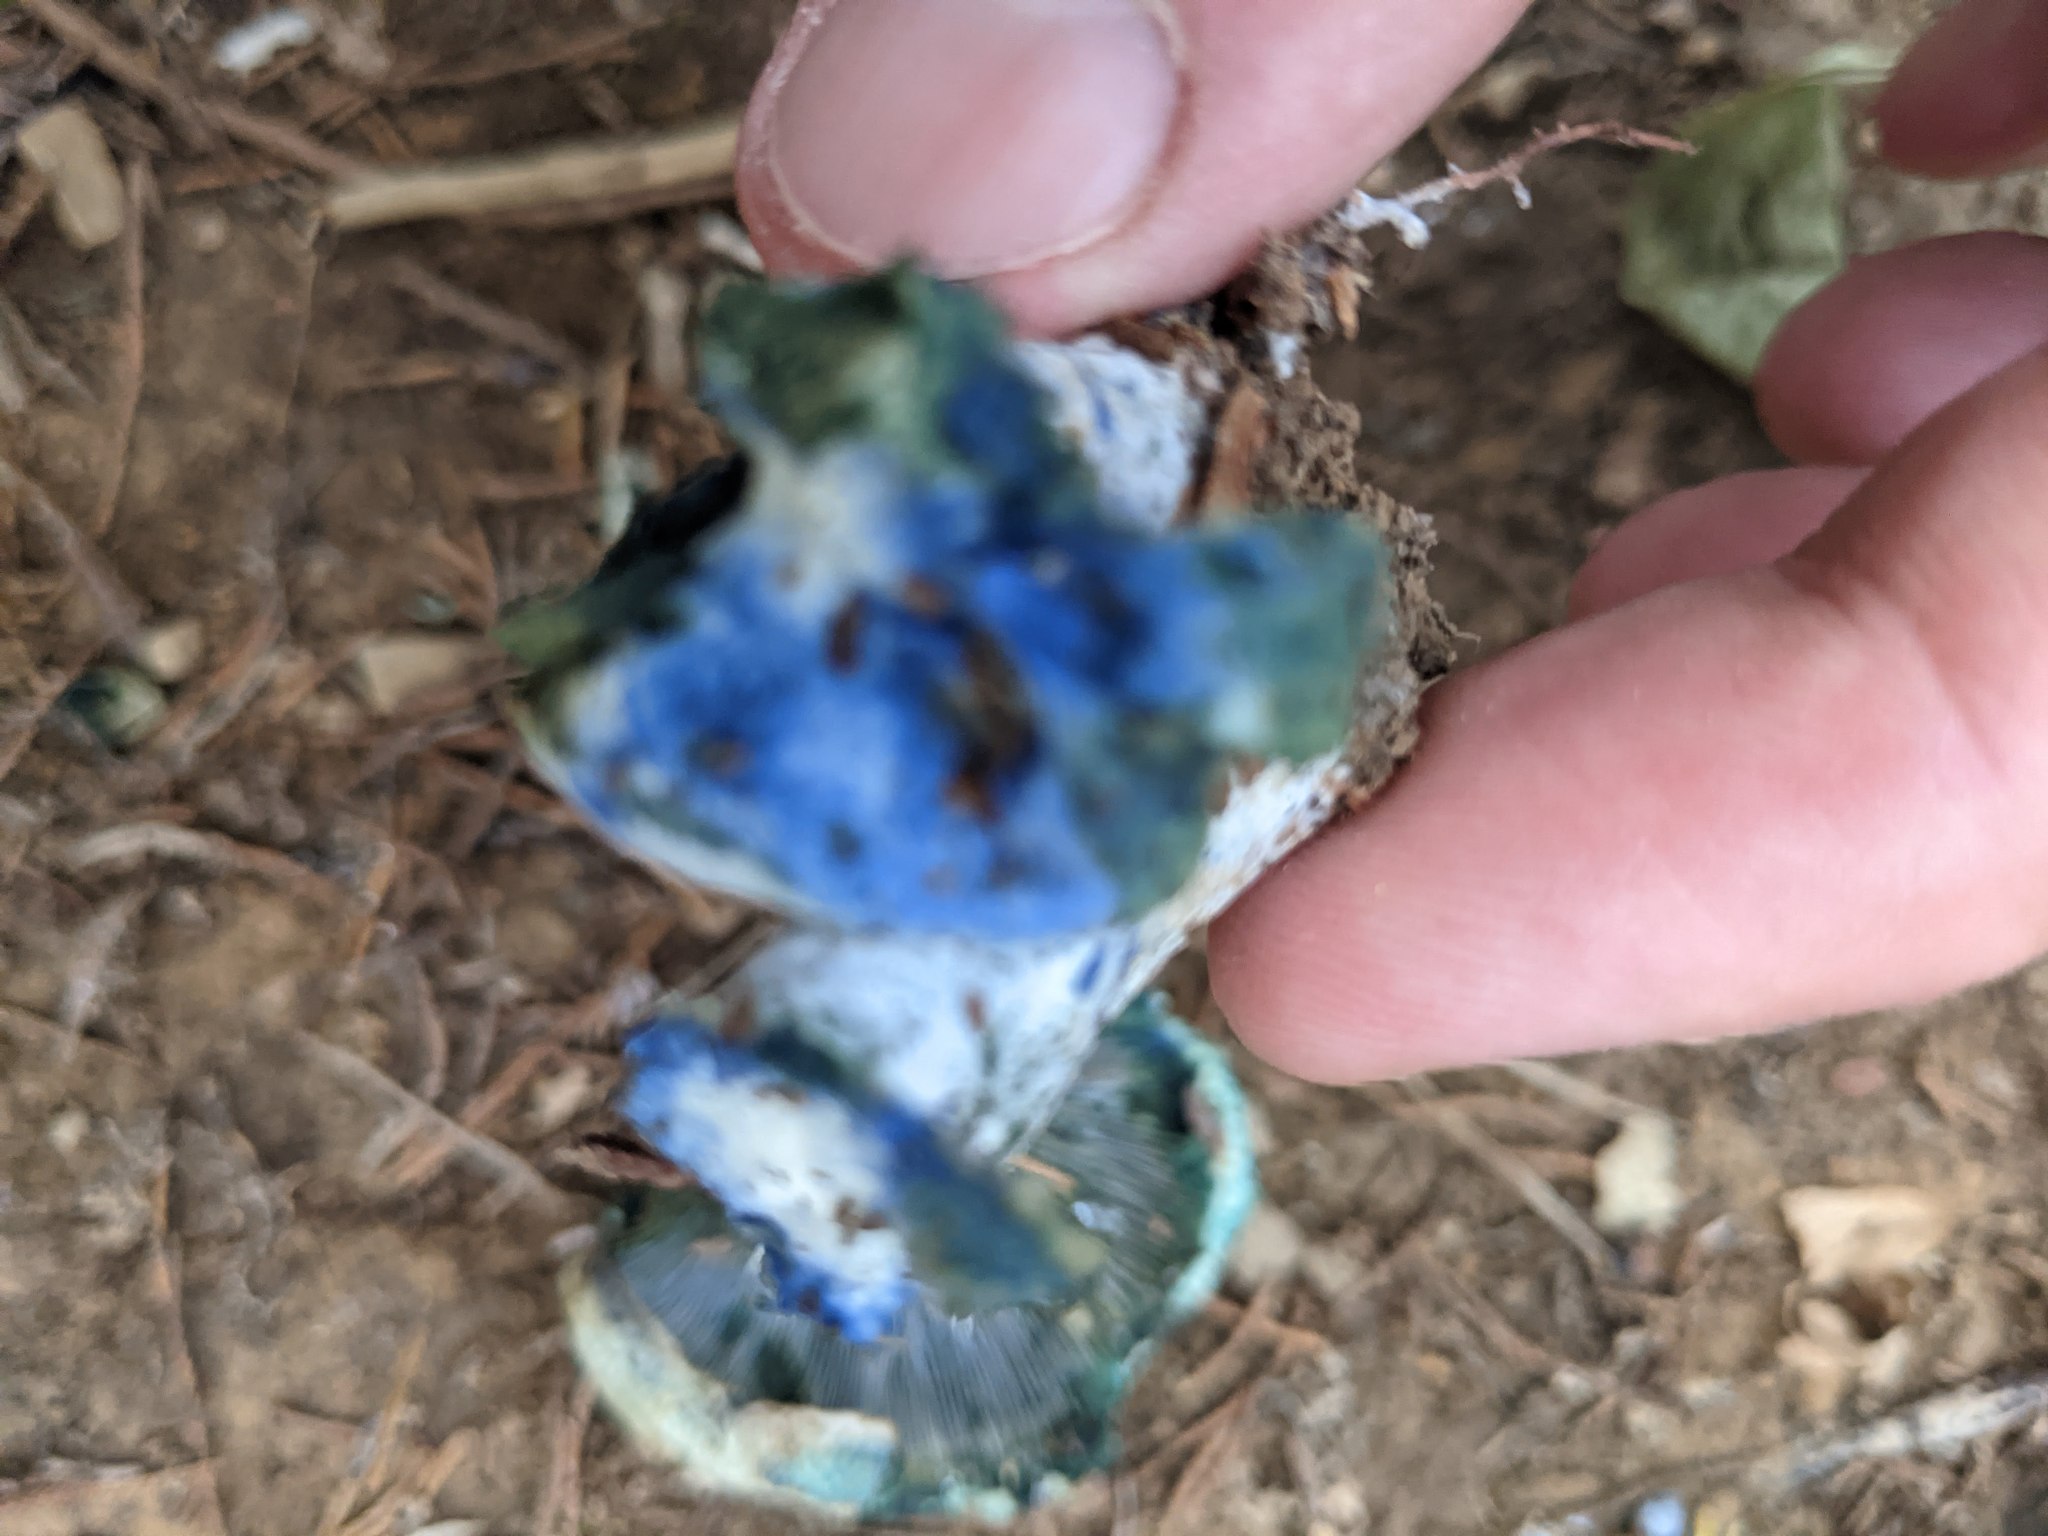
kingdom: Fungi
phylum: Basidiomycota
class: Agaricomycetes
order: Russulales
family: Russulaceae
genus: Lactarius
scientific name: Lactarius indigo
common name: Indigo milk cap
